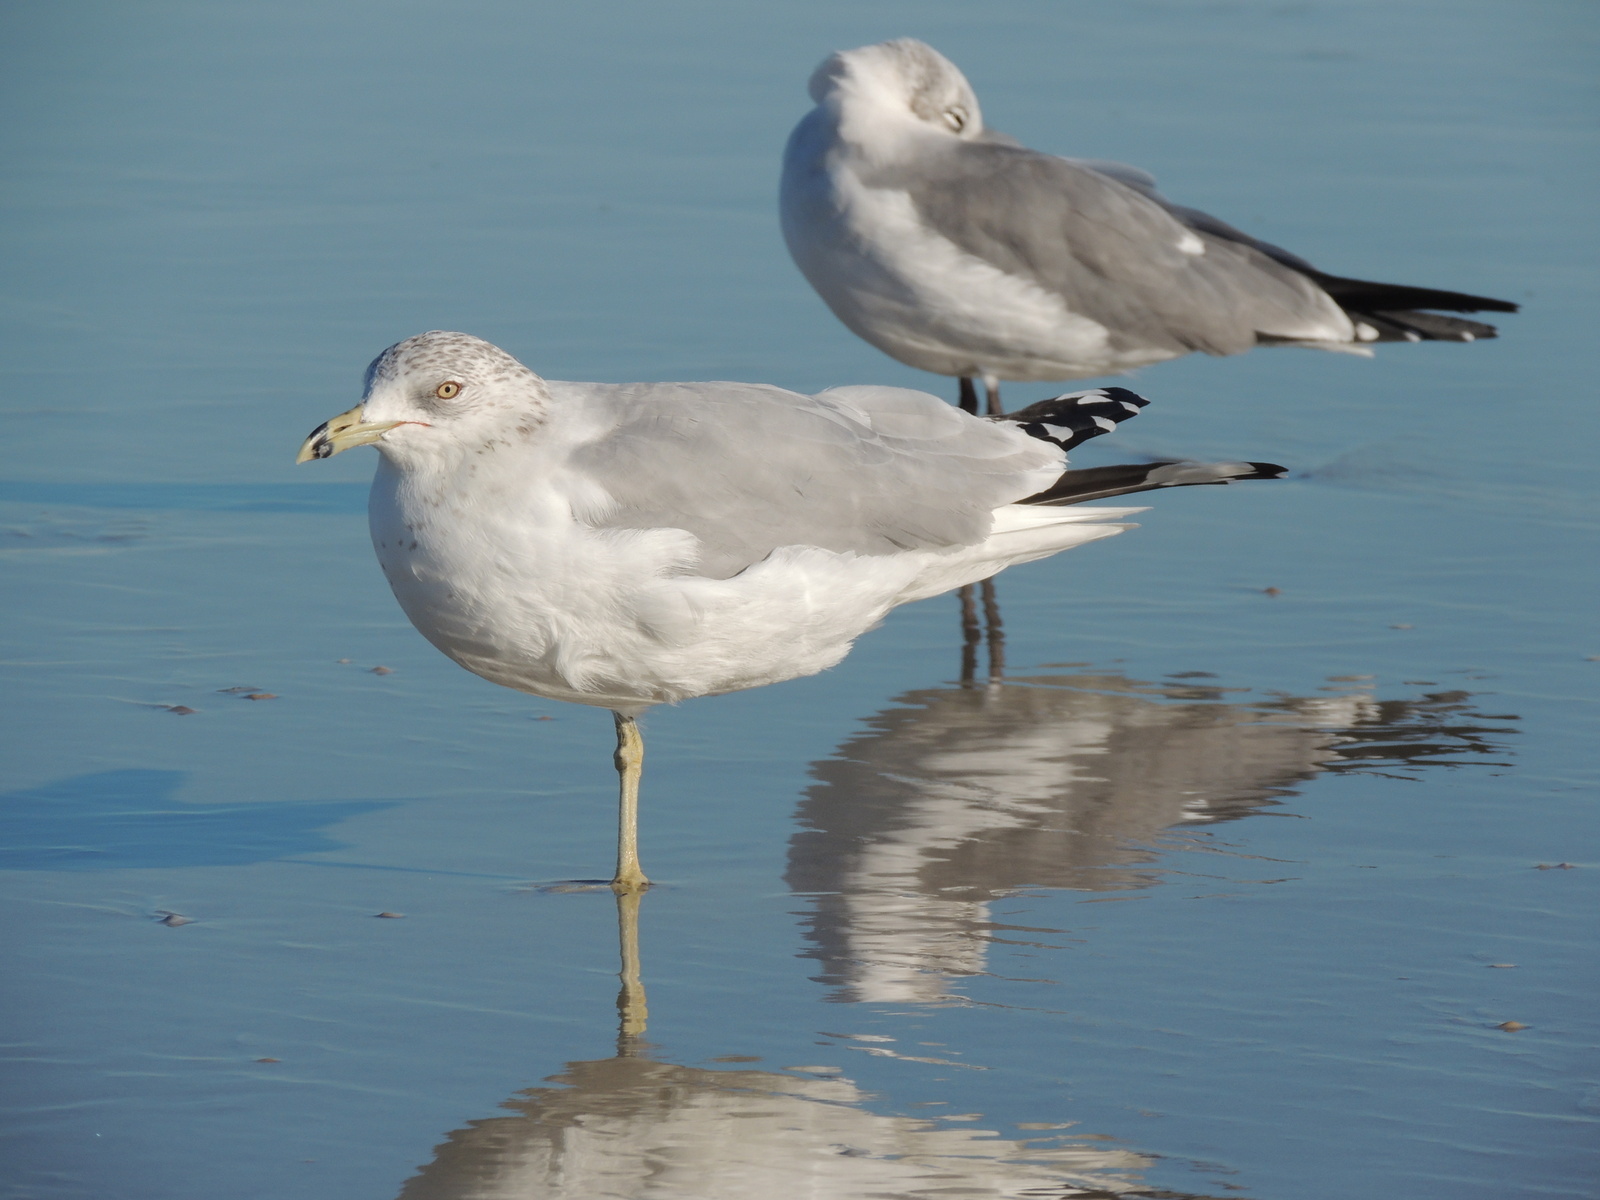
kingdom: Animalia
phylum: Chordata
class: Aves
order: Charadriiformes
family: Laridae
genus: Larus
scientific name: Larus delawarensis
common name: Ring-billed gull
